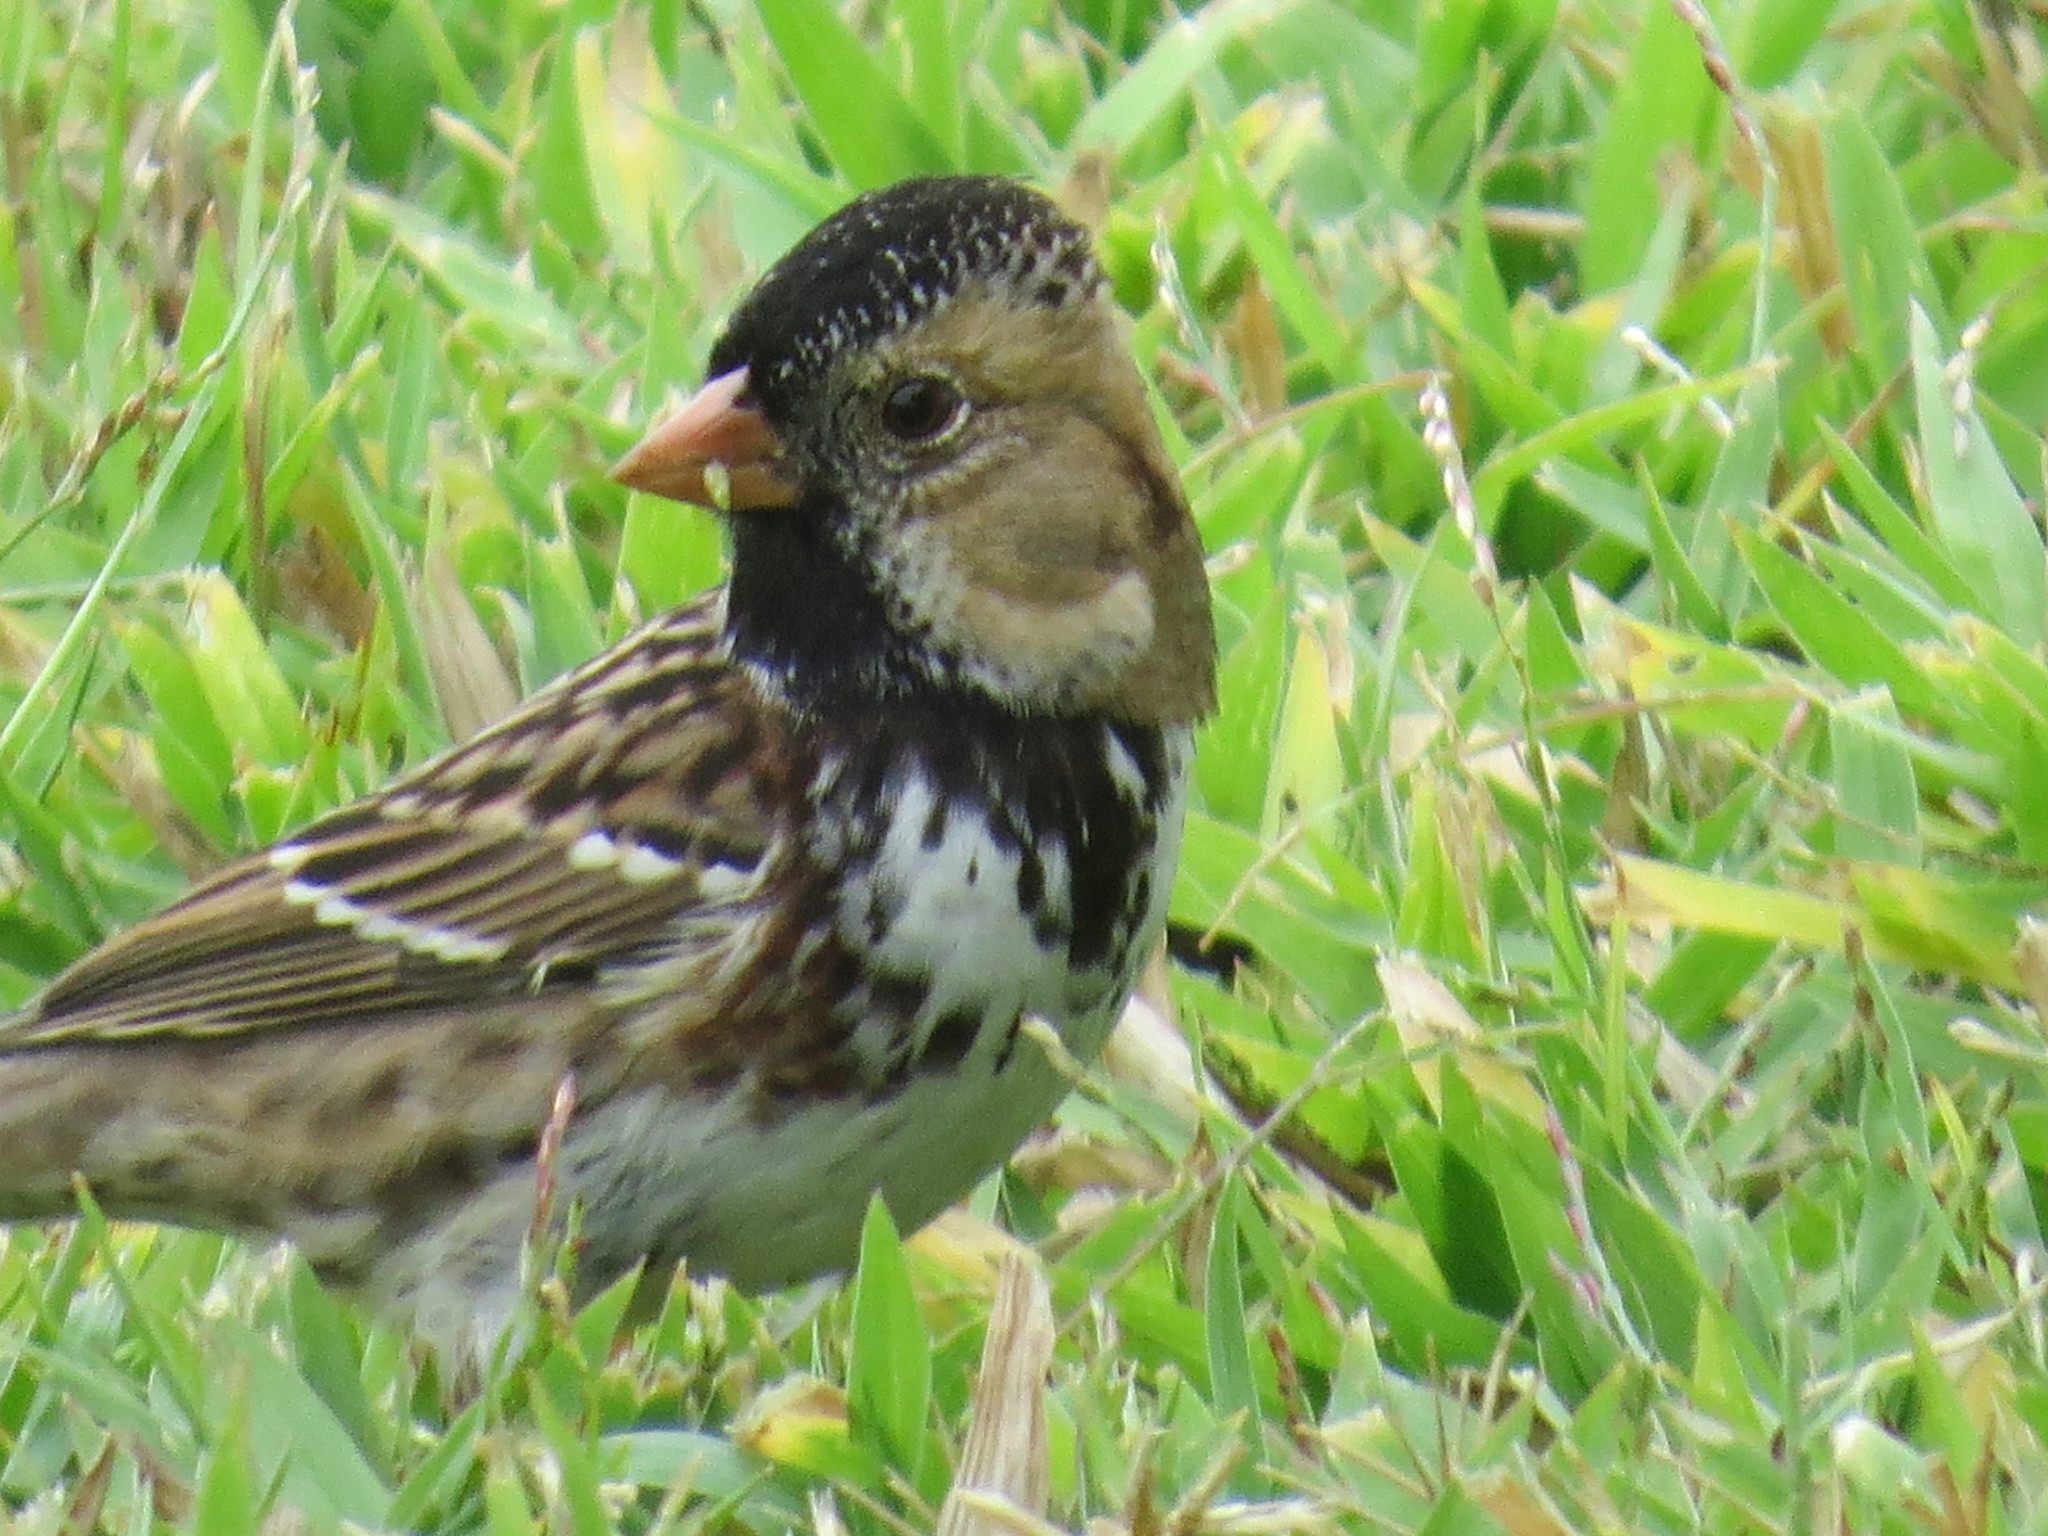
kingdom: Animalia
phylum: Chordata
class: Aves
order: Passeriformes
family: Passerellidae
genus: Zonotrichia
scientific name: Zonotrichia querula
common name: Harris's sparrow
